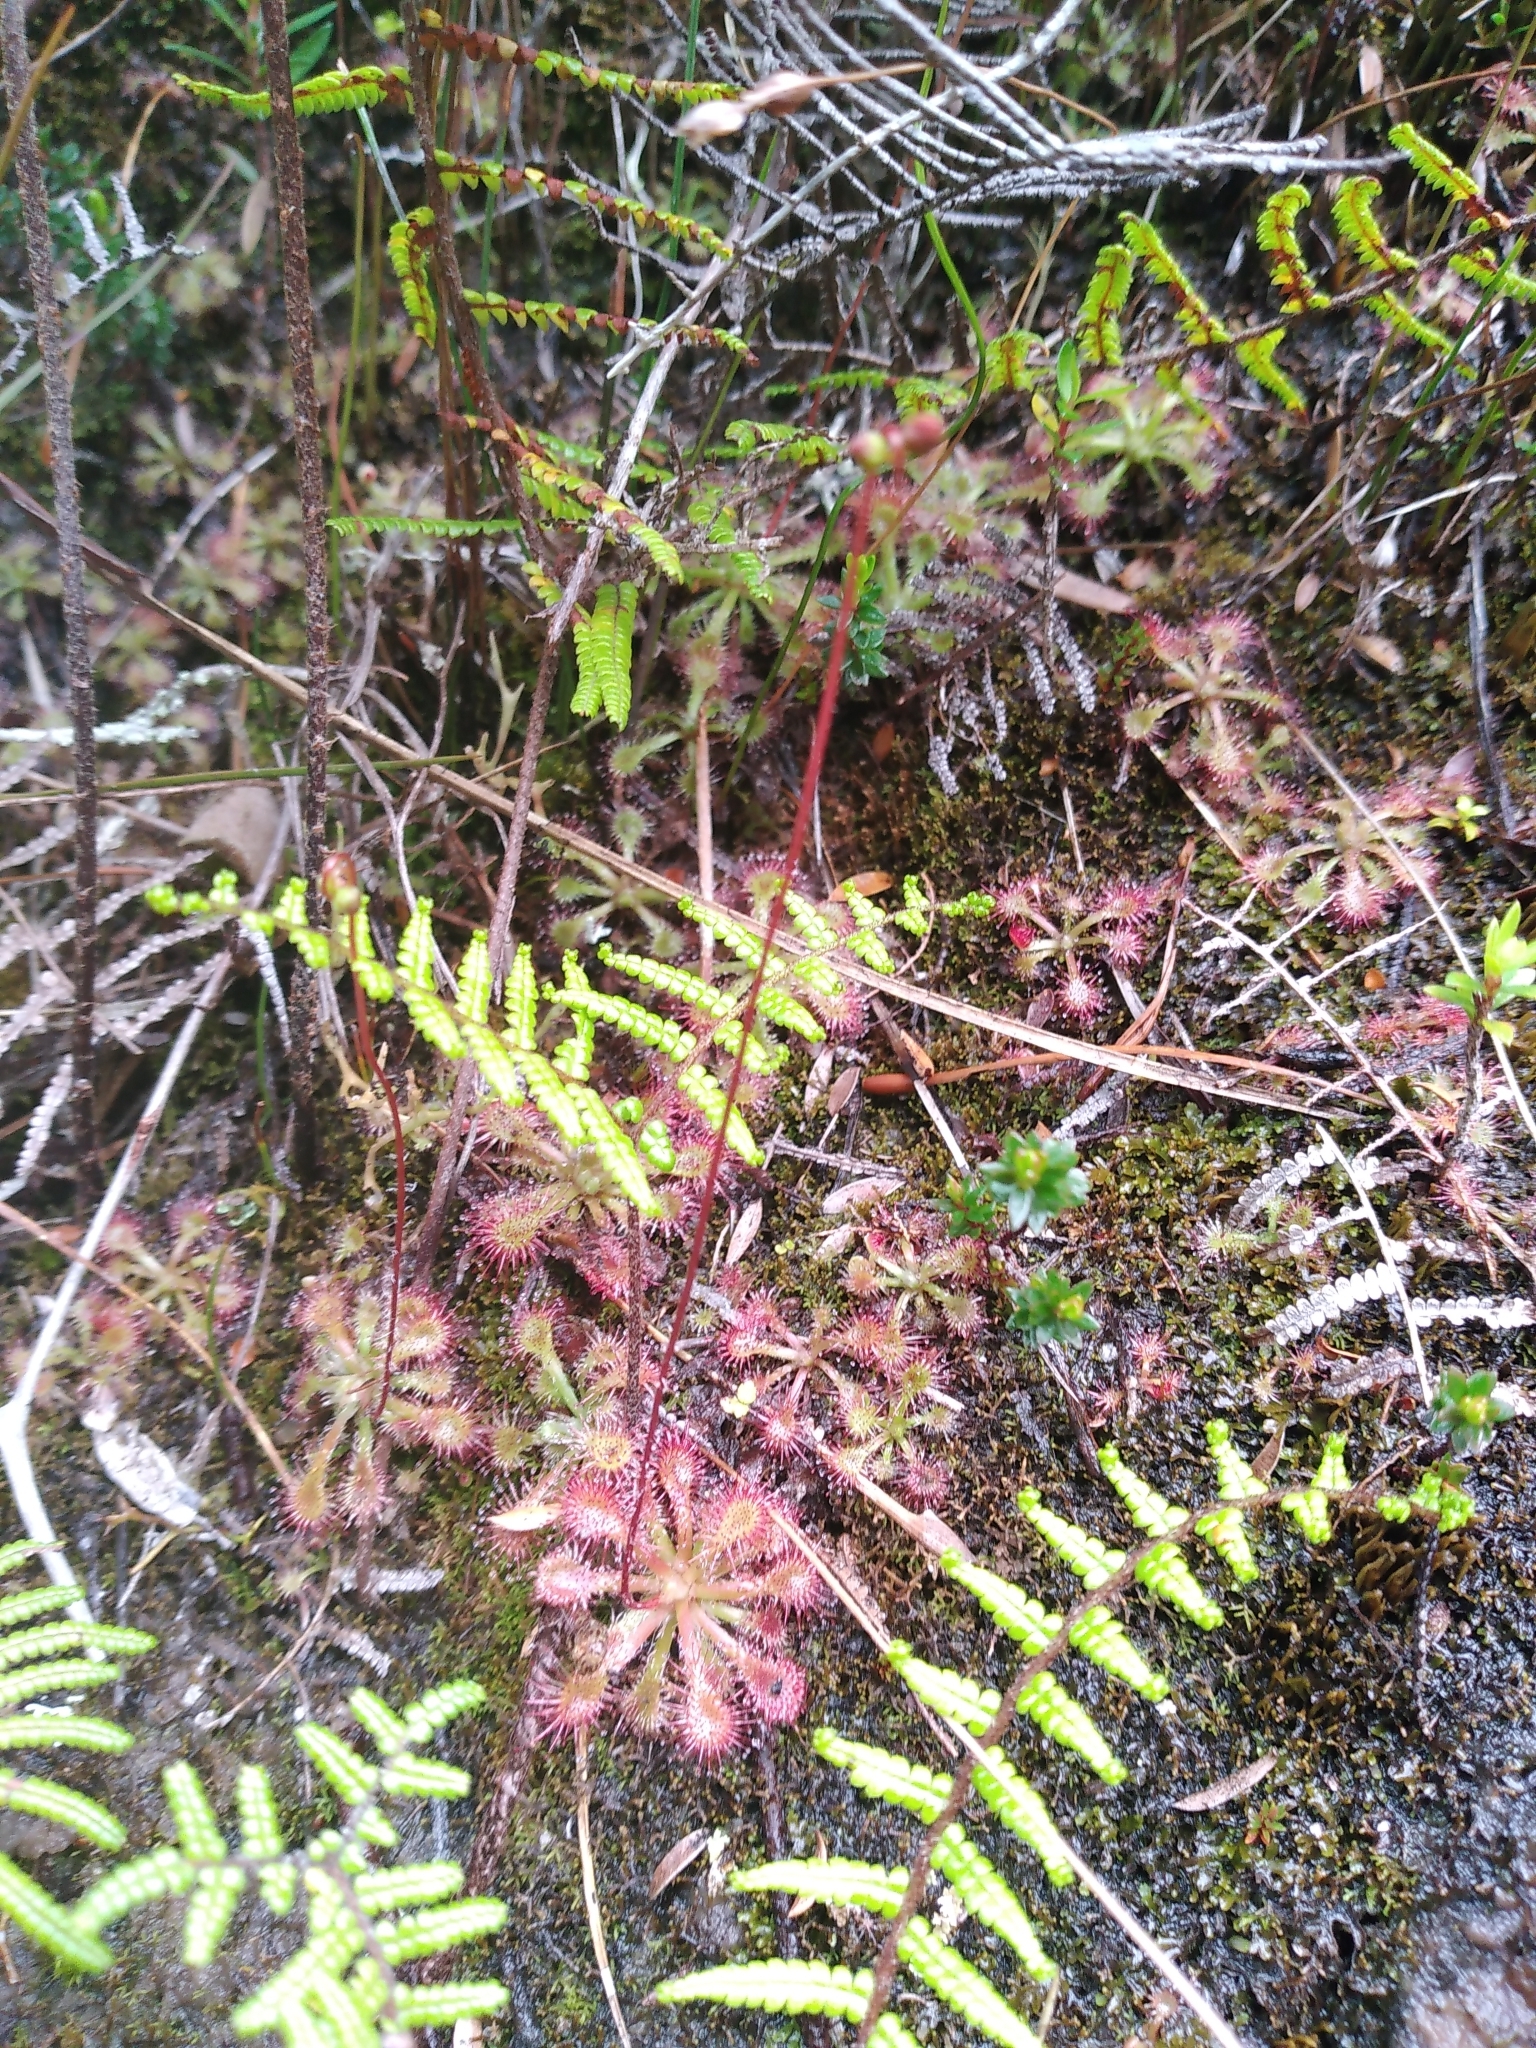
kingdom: Plantae
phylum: Tracheophyta
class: Magnoliopsida
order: Caryophyllales
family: Droseraceae
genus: Drosera
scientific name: Drosera spatulata
